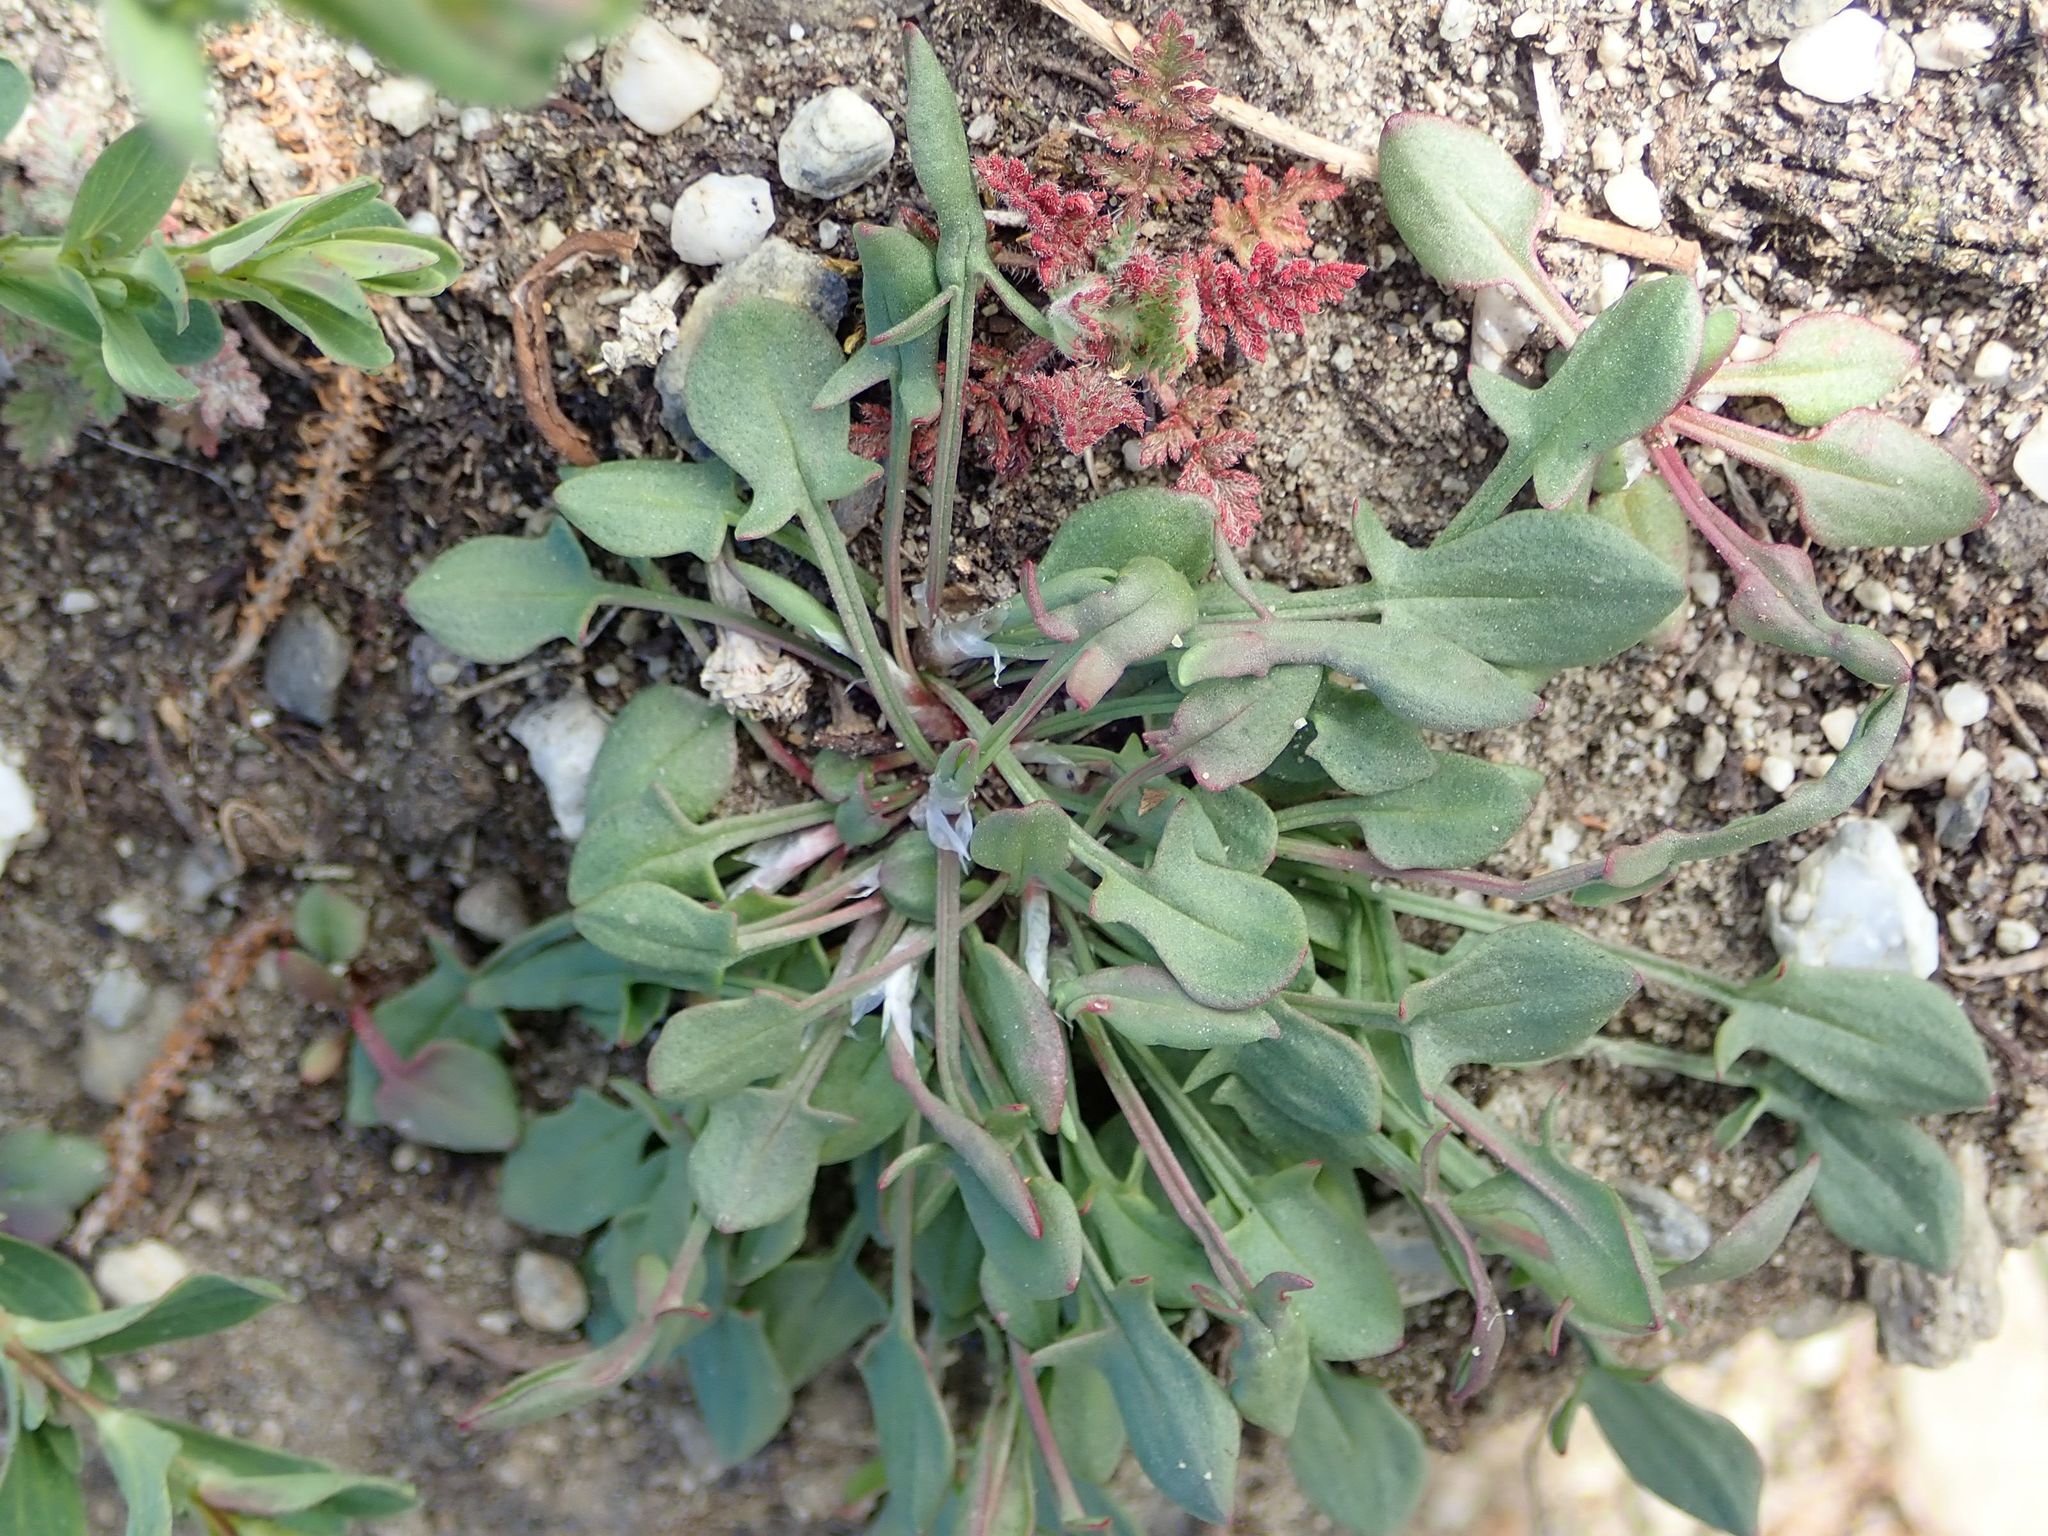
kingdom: Plantae
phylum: Tracheophyta
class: Magnoliopsida
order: Caryophyllales
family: Polygonaceae
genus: Rumex
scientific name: Rumex acetosella
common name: Common sheep sorrel
